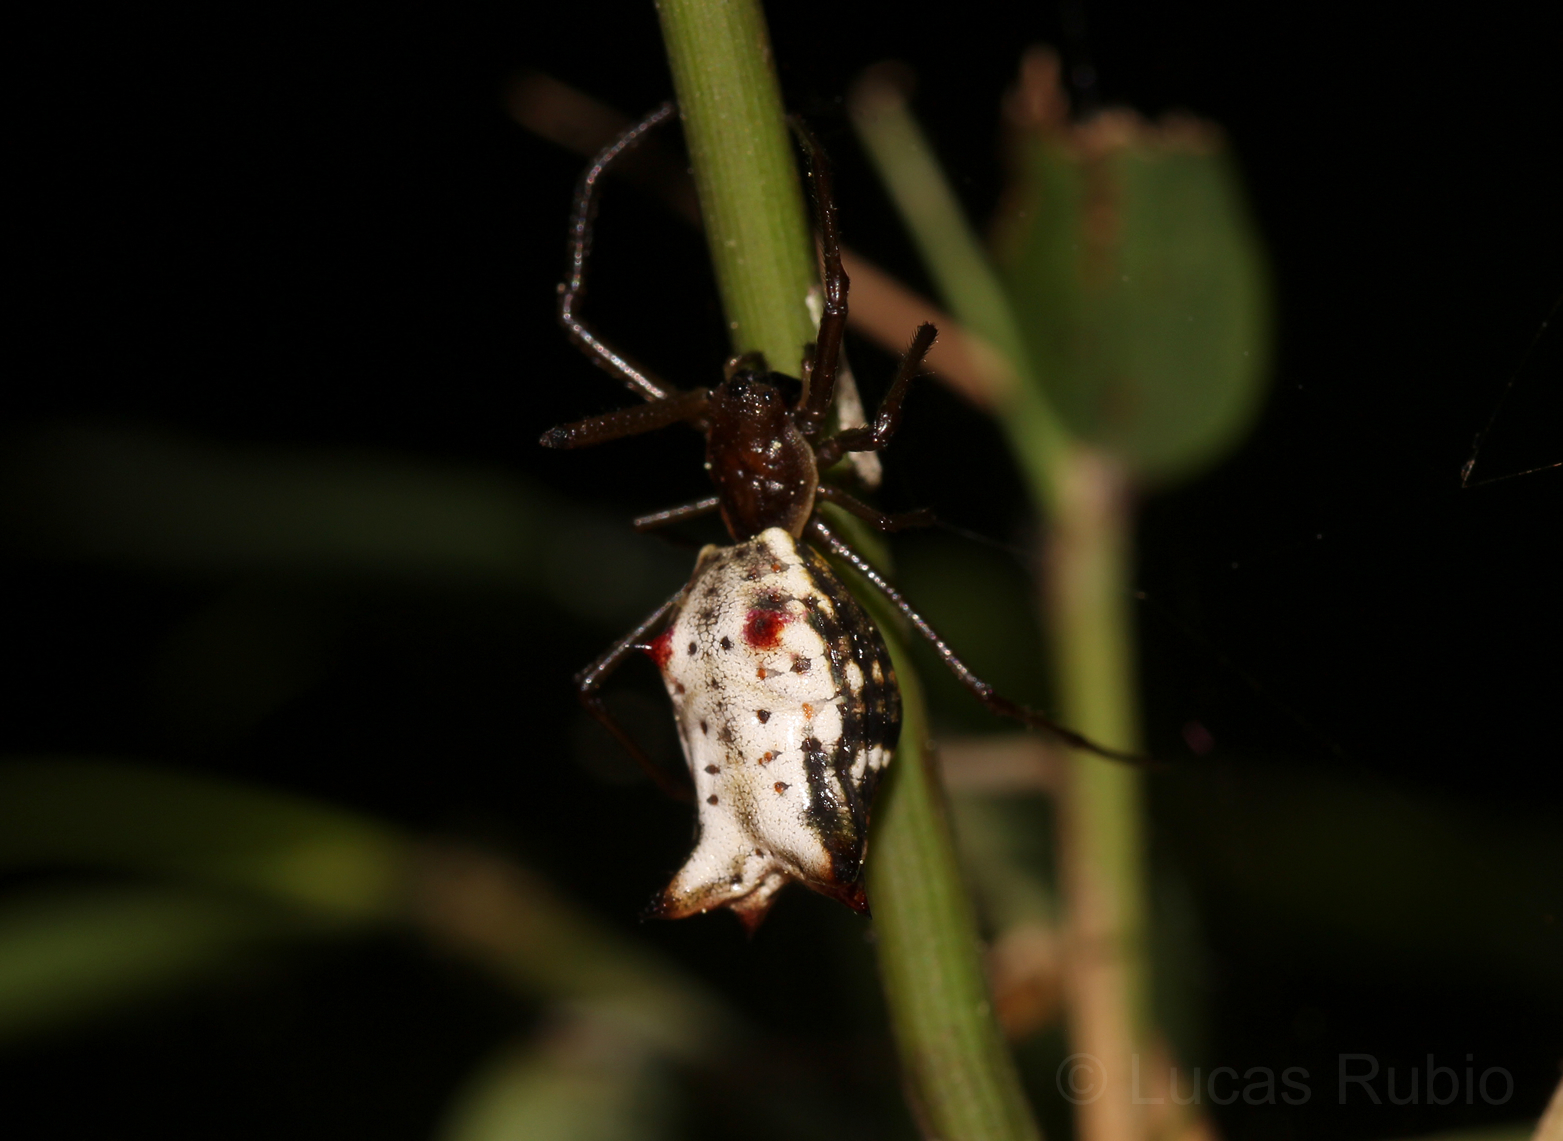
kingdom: Animalia
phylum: Arthropoda
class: Arachnida
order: Araneae
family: Araneidae
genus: Micrathena
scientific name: Micrathena nigrichelis
